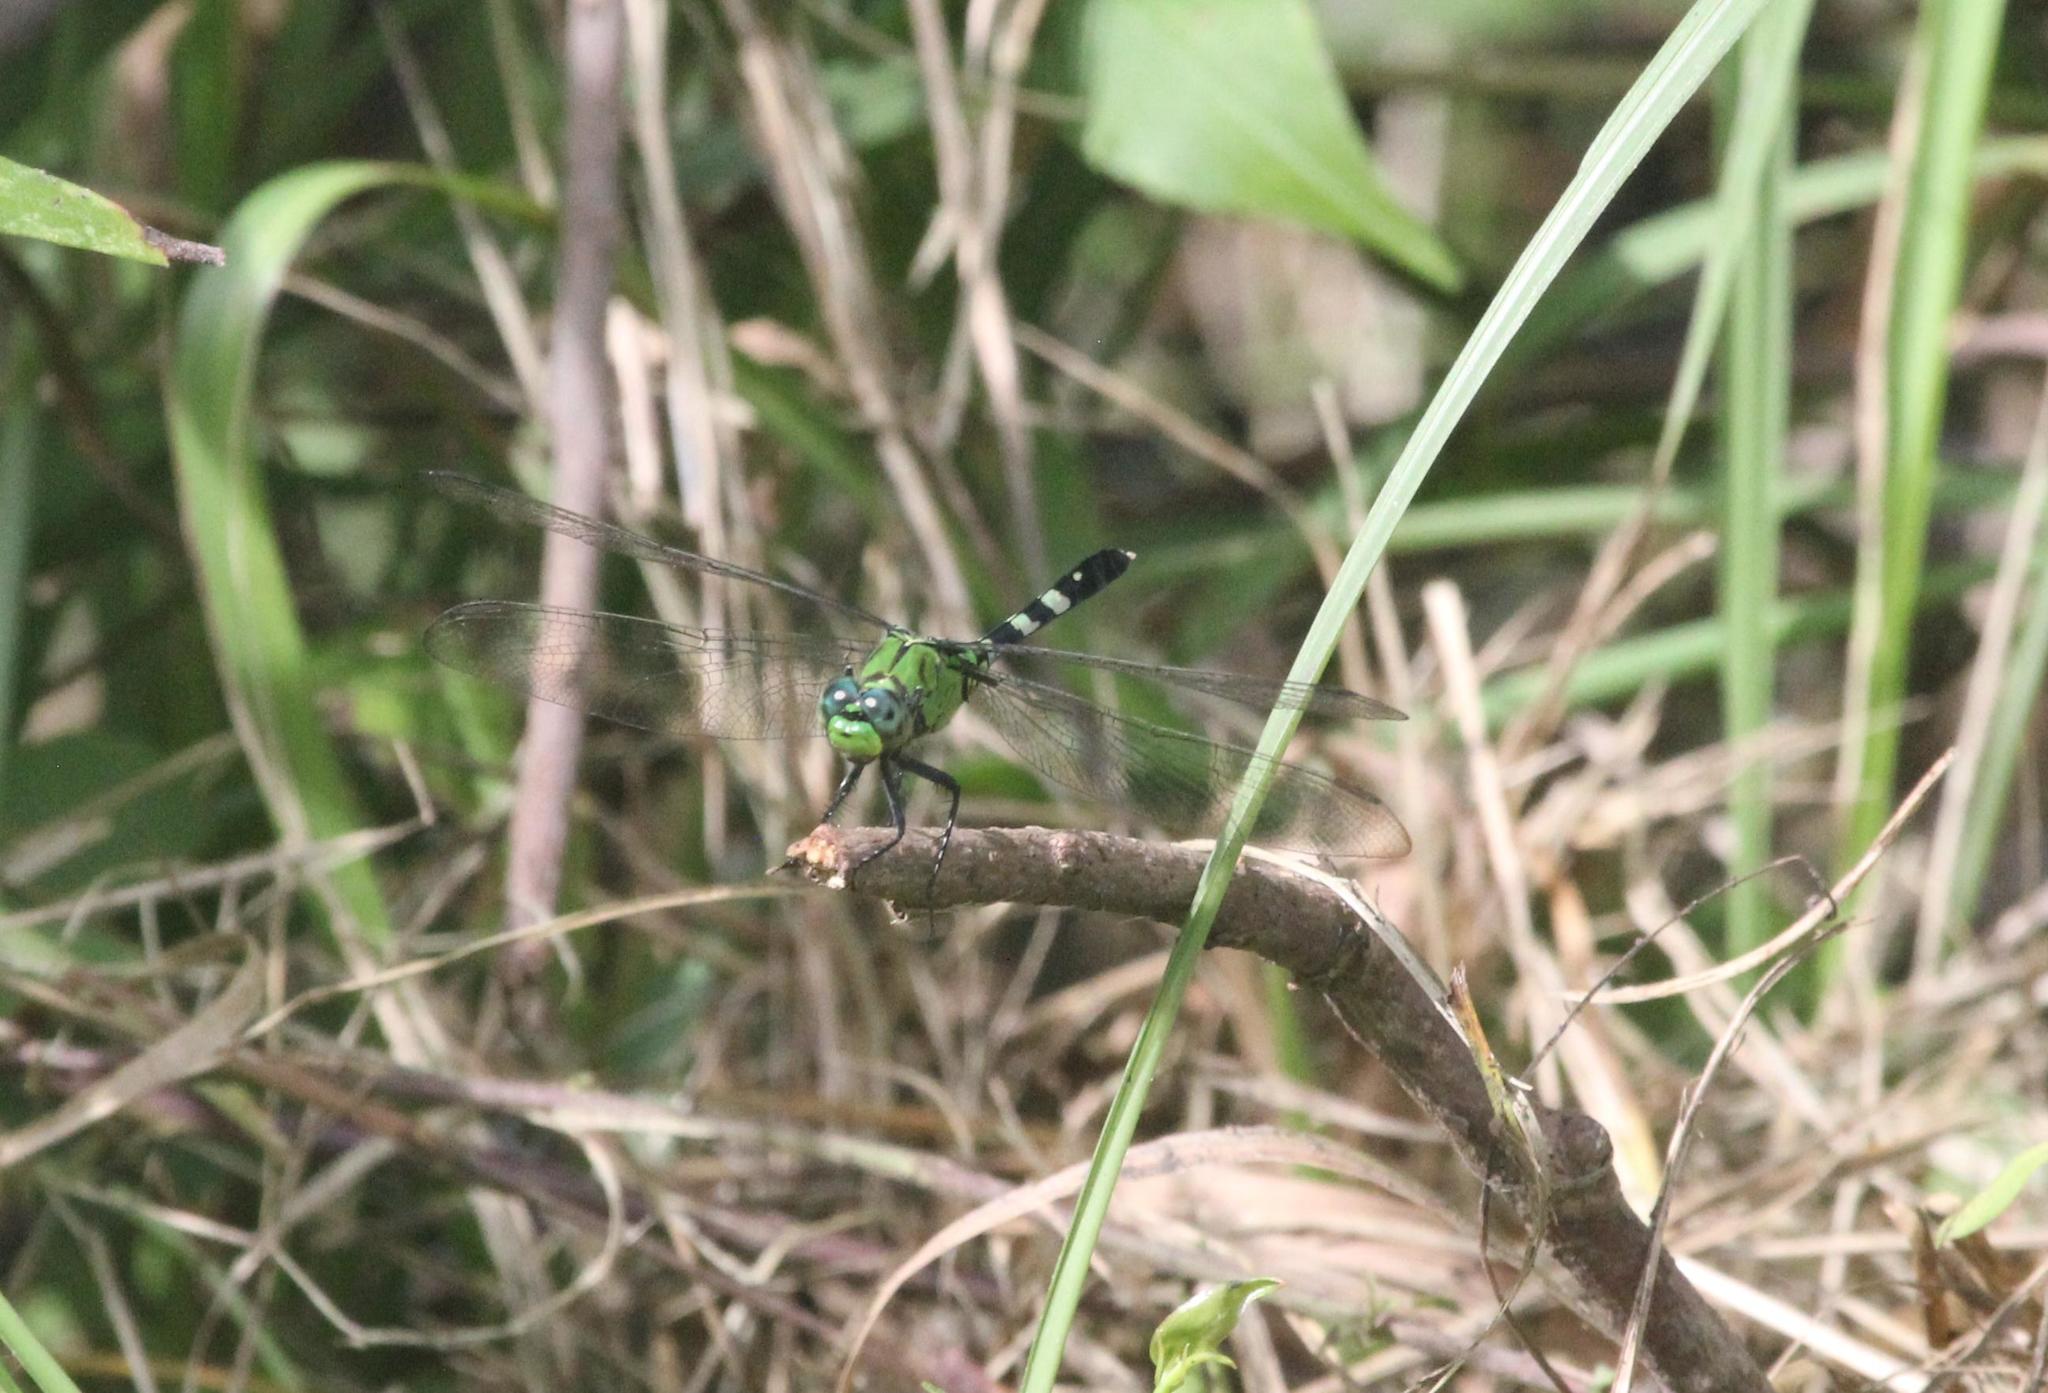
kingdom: Animalia
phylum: Arthropoda
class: Insecta
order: Odonata
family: Libellulidae
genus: Erythemis
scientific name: Erythemis simplicicollis
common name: Eastern pondhawk
